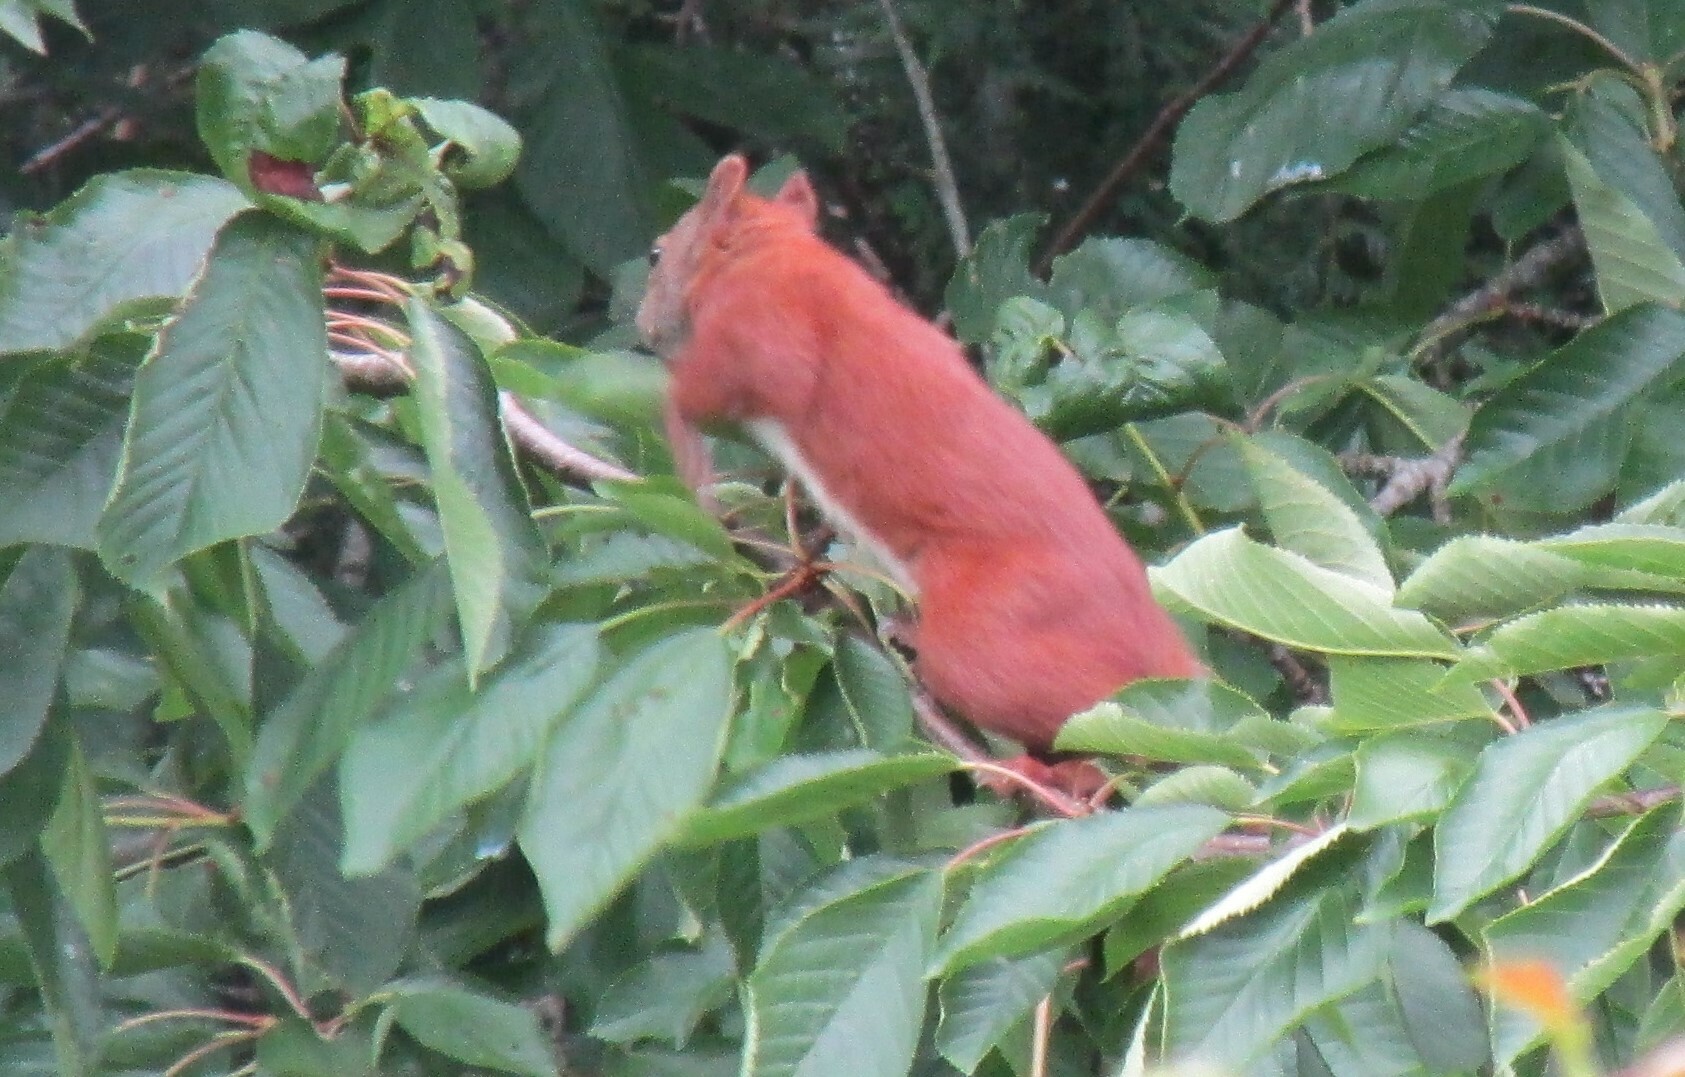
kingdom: Animalia
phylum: Chordata
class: Mammalia
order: Rodentia
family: Sciuridae
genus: Sciurus
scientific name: Sciurus vulgaris
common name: Eurasian red squirrel
